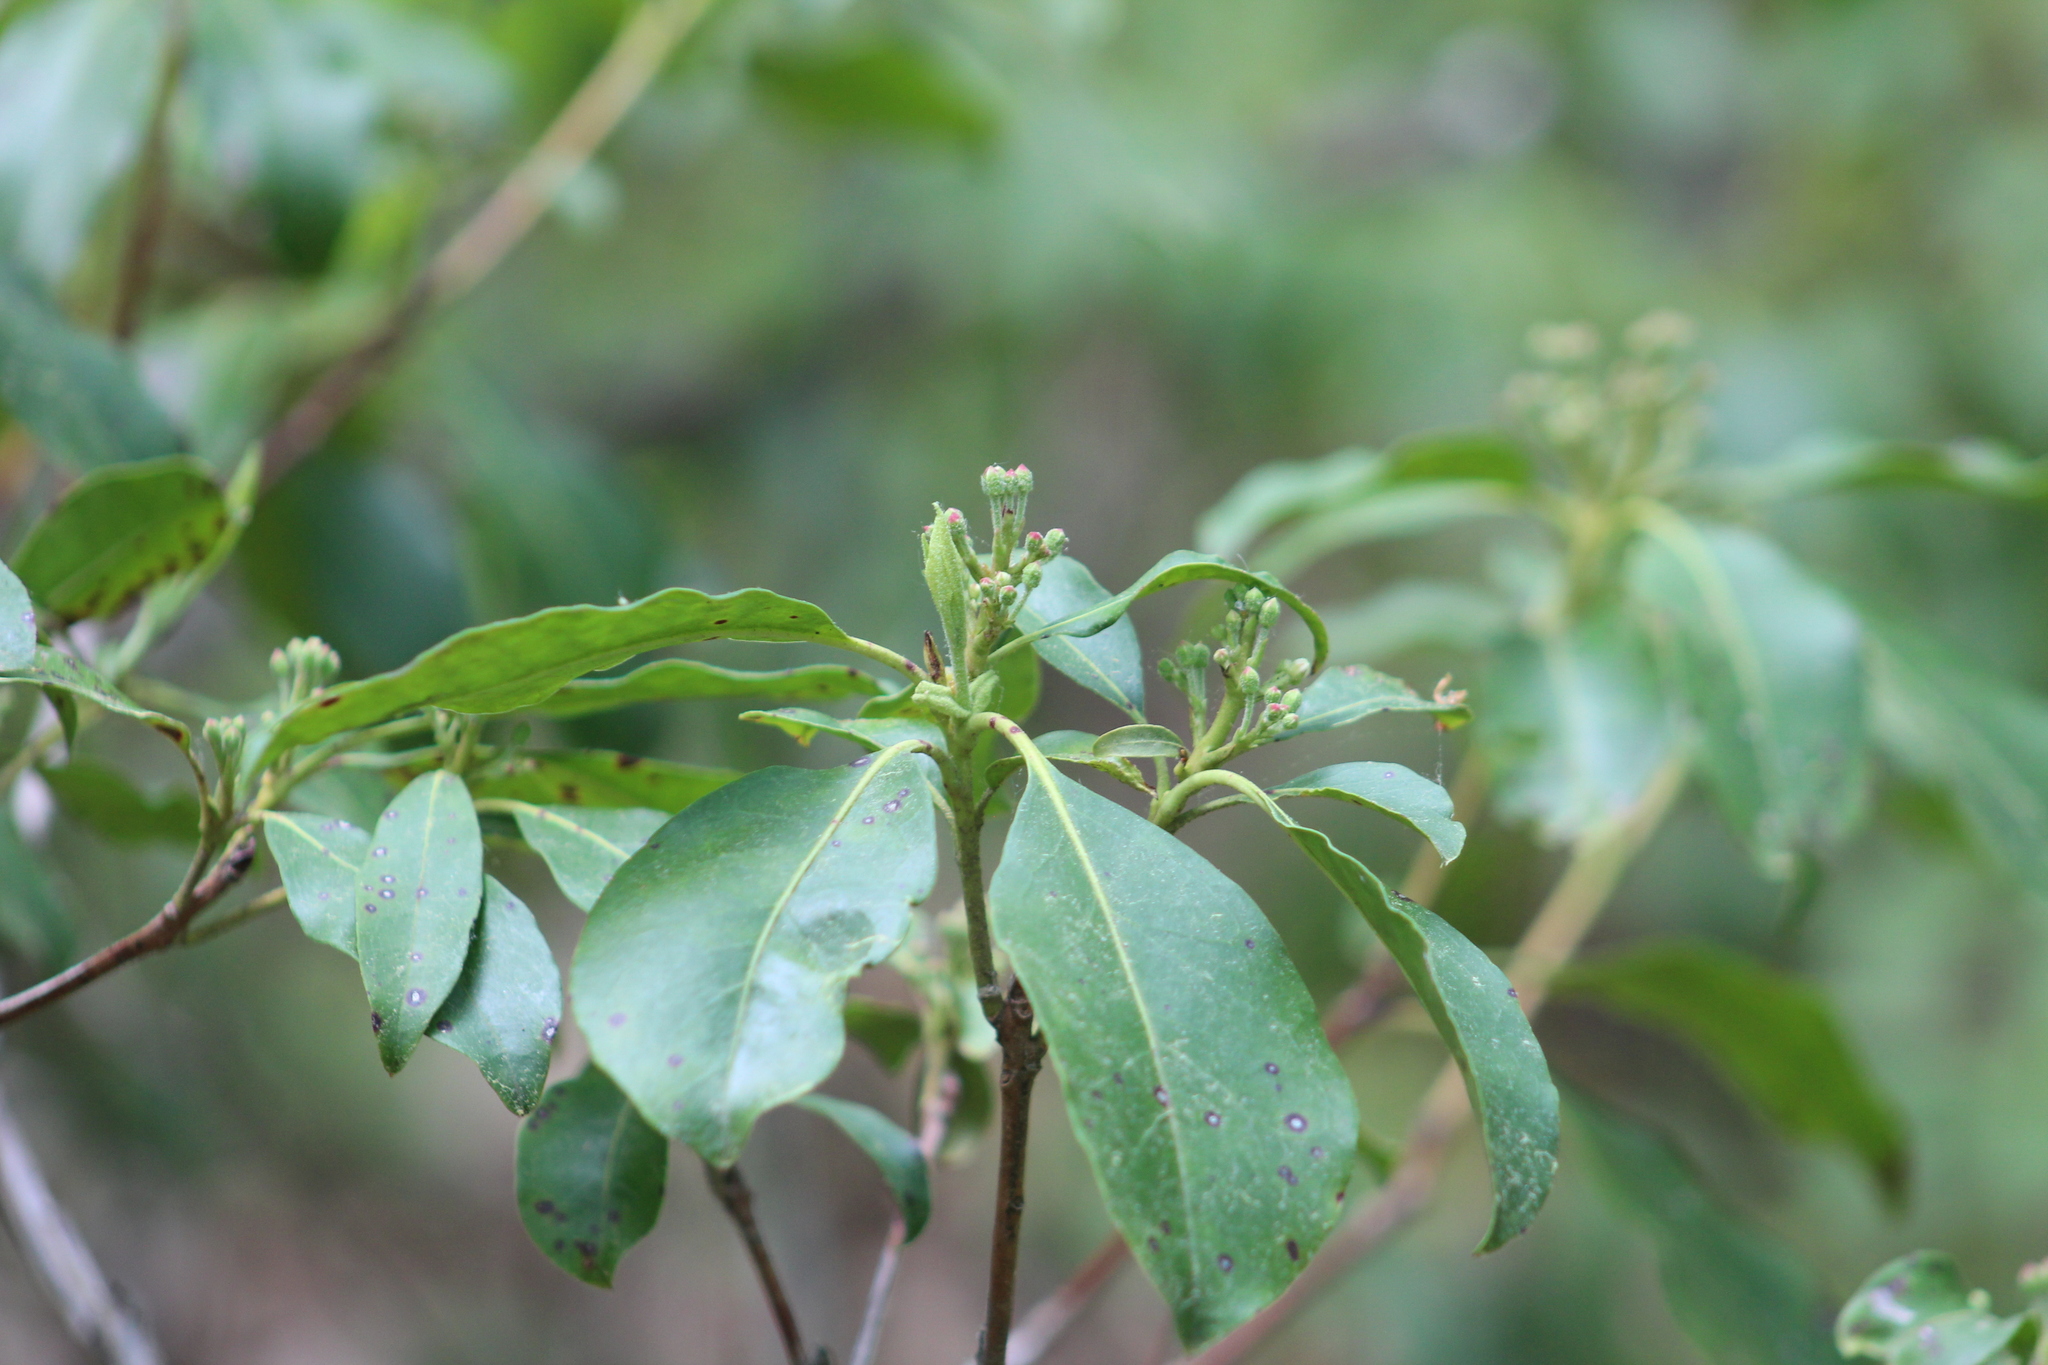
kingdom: Plantae
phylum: Tracheophyta
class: Magnoliopsida
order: Ericales
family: Ericaceae
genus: Kalmia
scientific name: Kalmia latifolia
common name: Mountain-laurel
